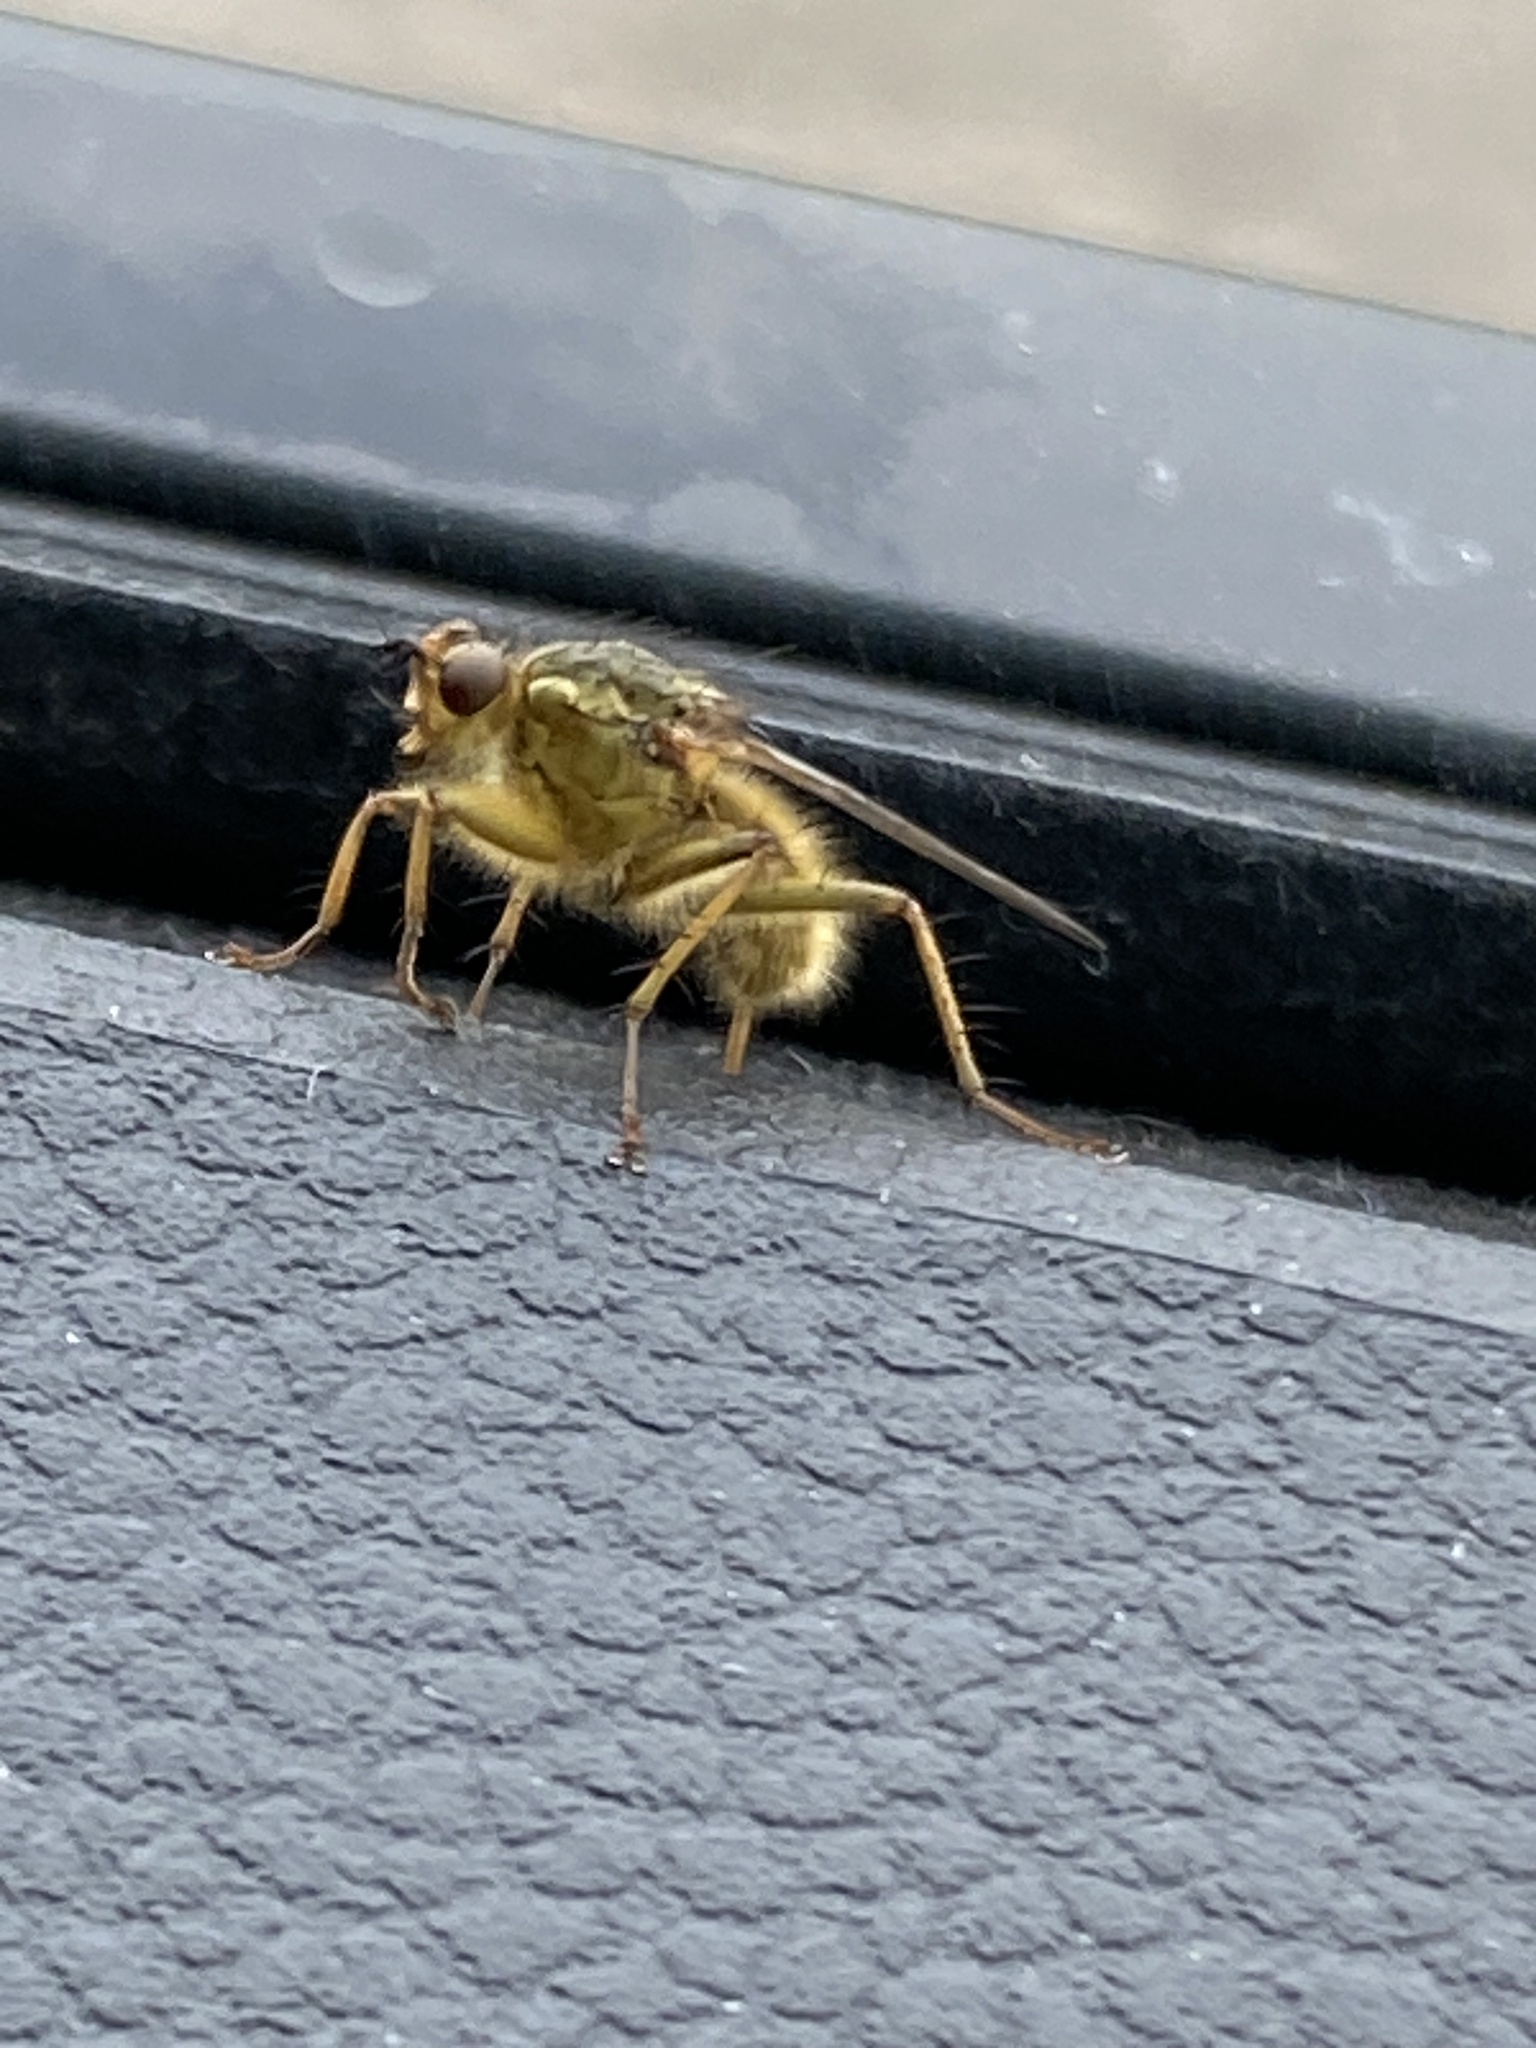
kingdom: Animalia
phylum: Arthropoda
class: Insecta
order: Diptera
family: Scathophagidae
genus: Scathophaga
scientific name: Scathophaga stercoraria
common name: Yellow dung fly
